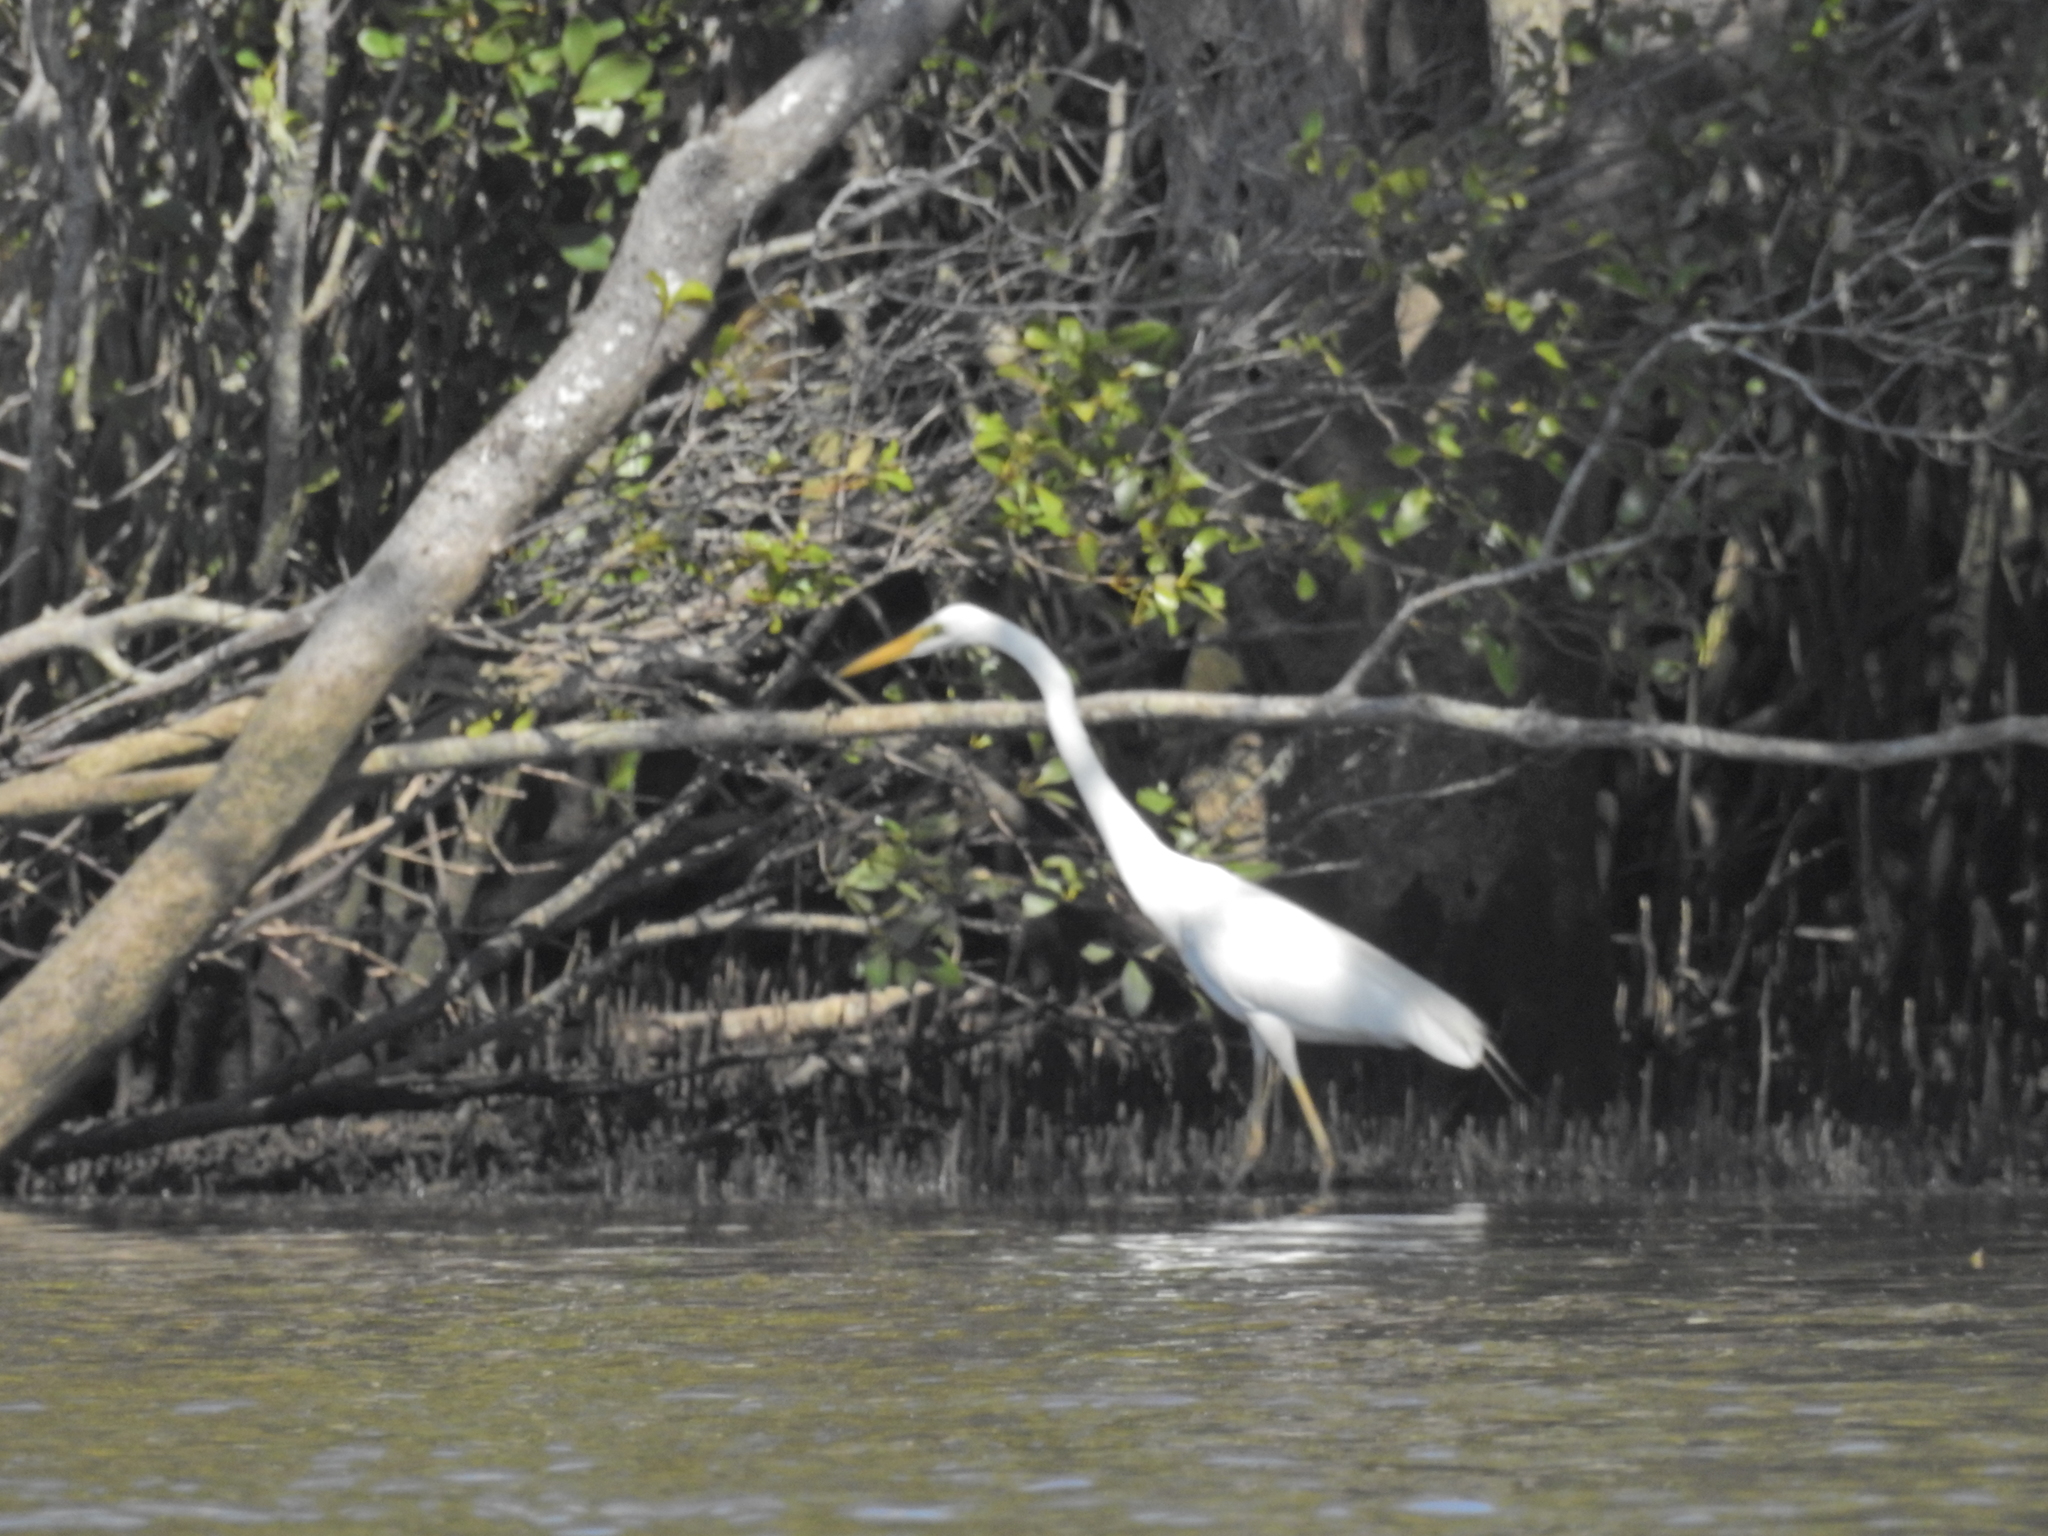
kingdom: Animalia
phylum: Chordata
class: Aves
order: Pelecaniformes
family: Ardeidae
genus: Ardea
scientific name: Ardea alba
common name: Great egret
